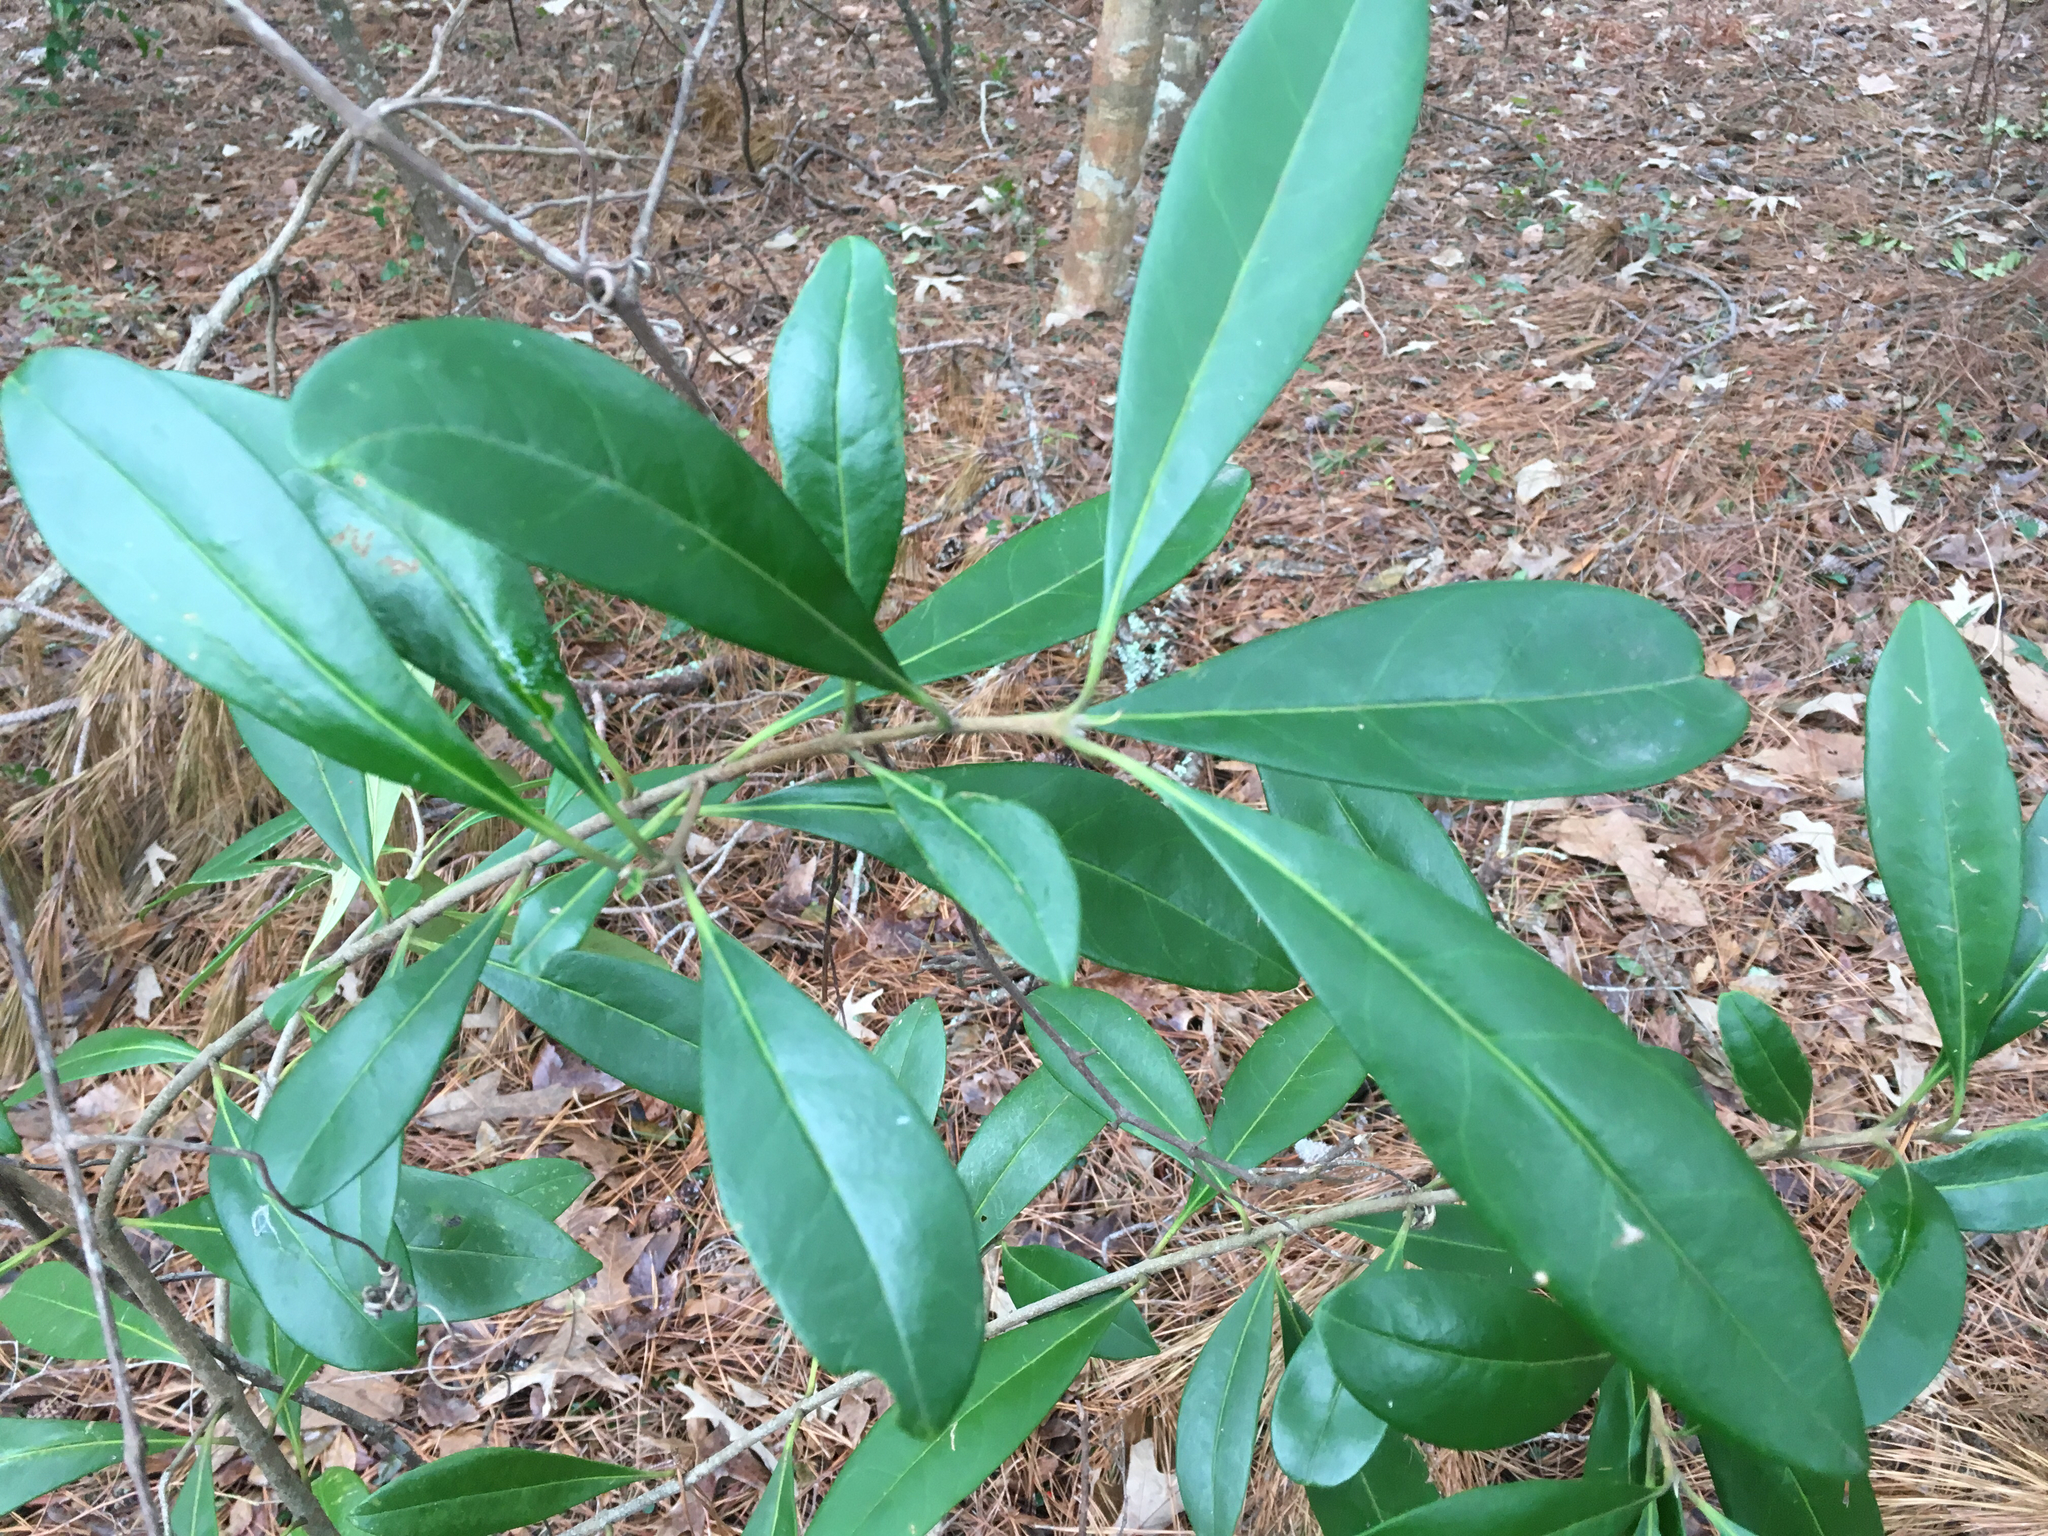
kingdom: Plantae
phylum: Tracheophyta
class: Magnoliopsida
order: Lamiales
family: Oleaceae
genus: Cartrema
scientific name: Cartrema americana
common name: Devilwood
